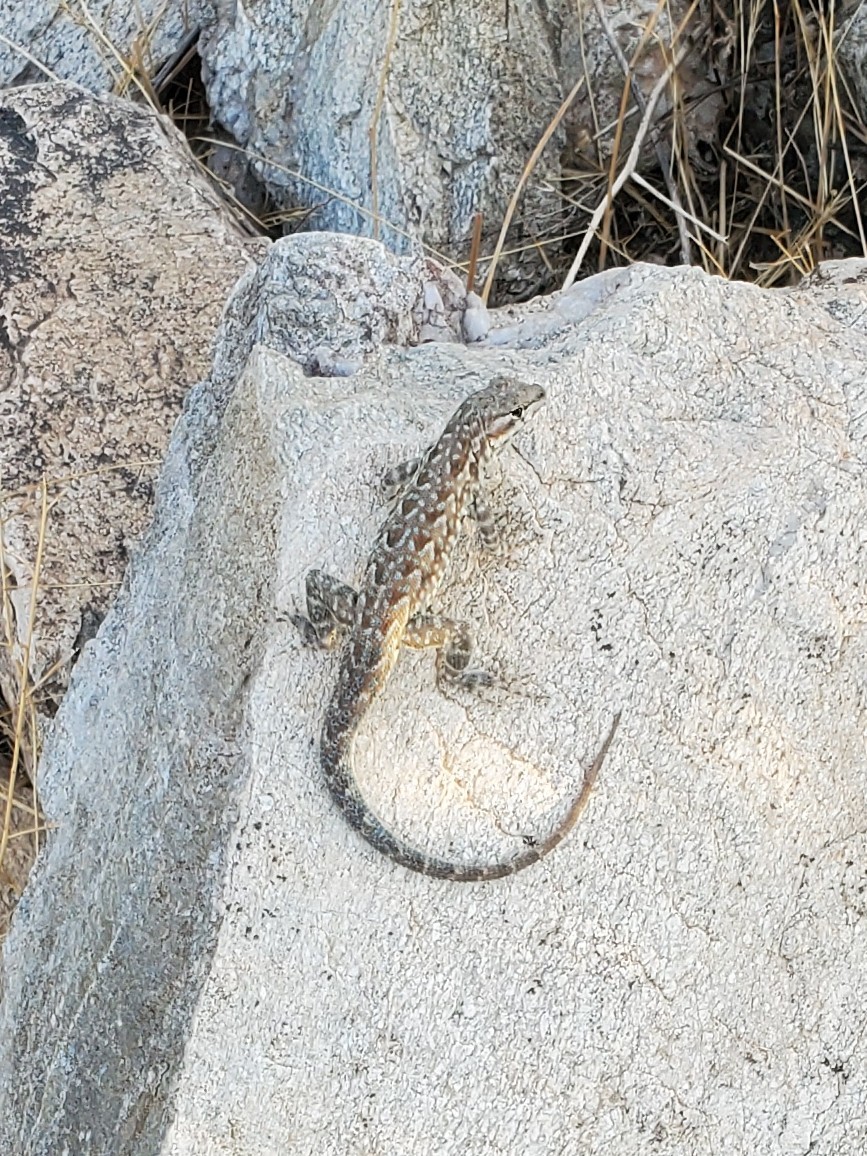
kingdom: Animalia
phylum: Chordata
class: Squamata
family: Phrynosomatidae
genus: Uta
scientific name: Uta stansburiana
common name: Side-blotched lizard
